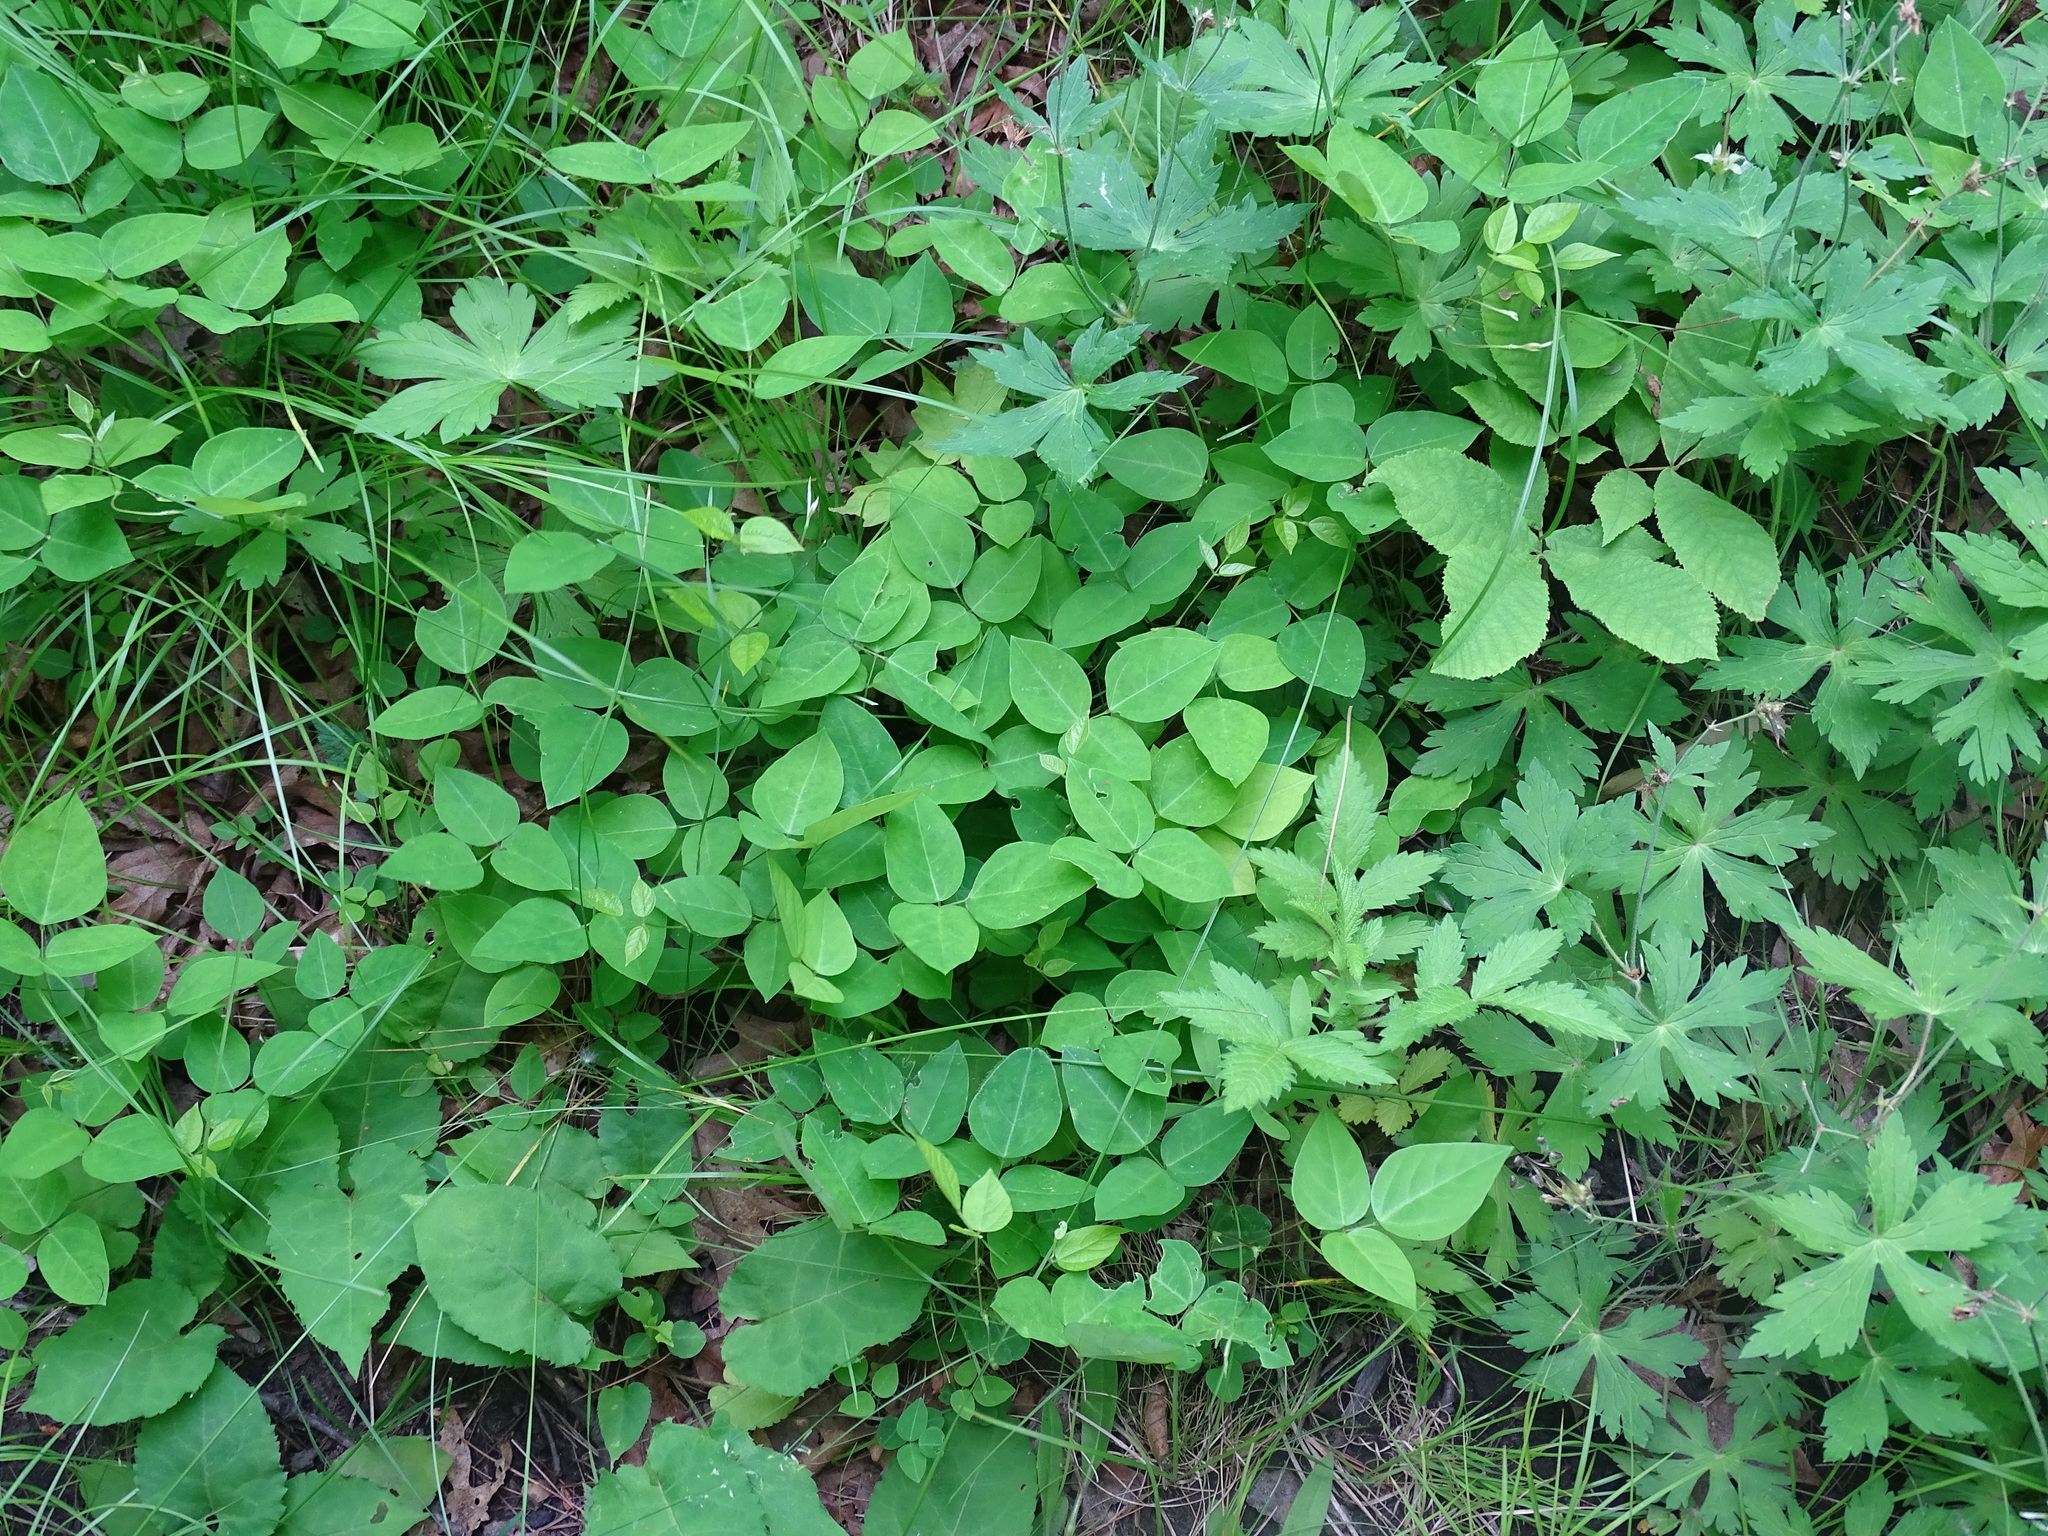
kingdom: Plantae
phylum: Tracheophyta
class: Magnoliopsida
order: Fabales
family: Fabaceae
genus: Amphicarpaea
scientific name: Amphicarpaea bracteata
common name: American hog peanut
